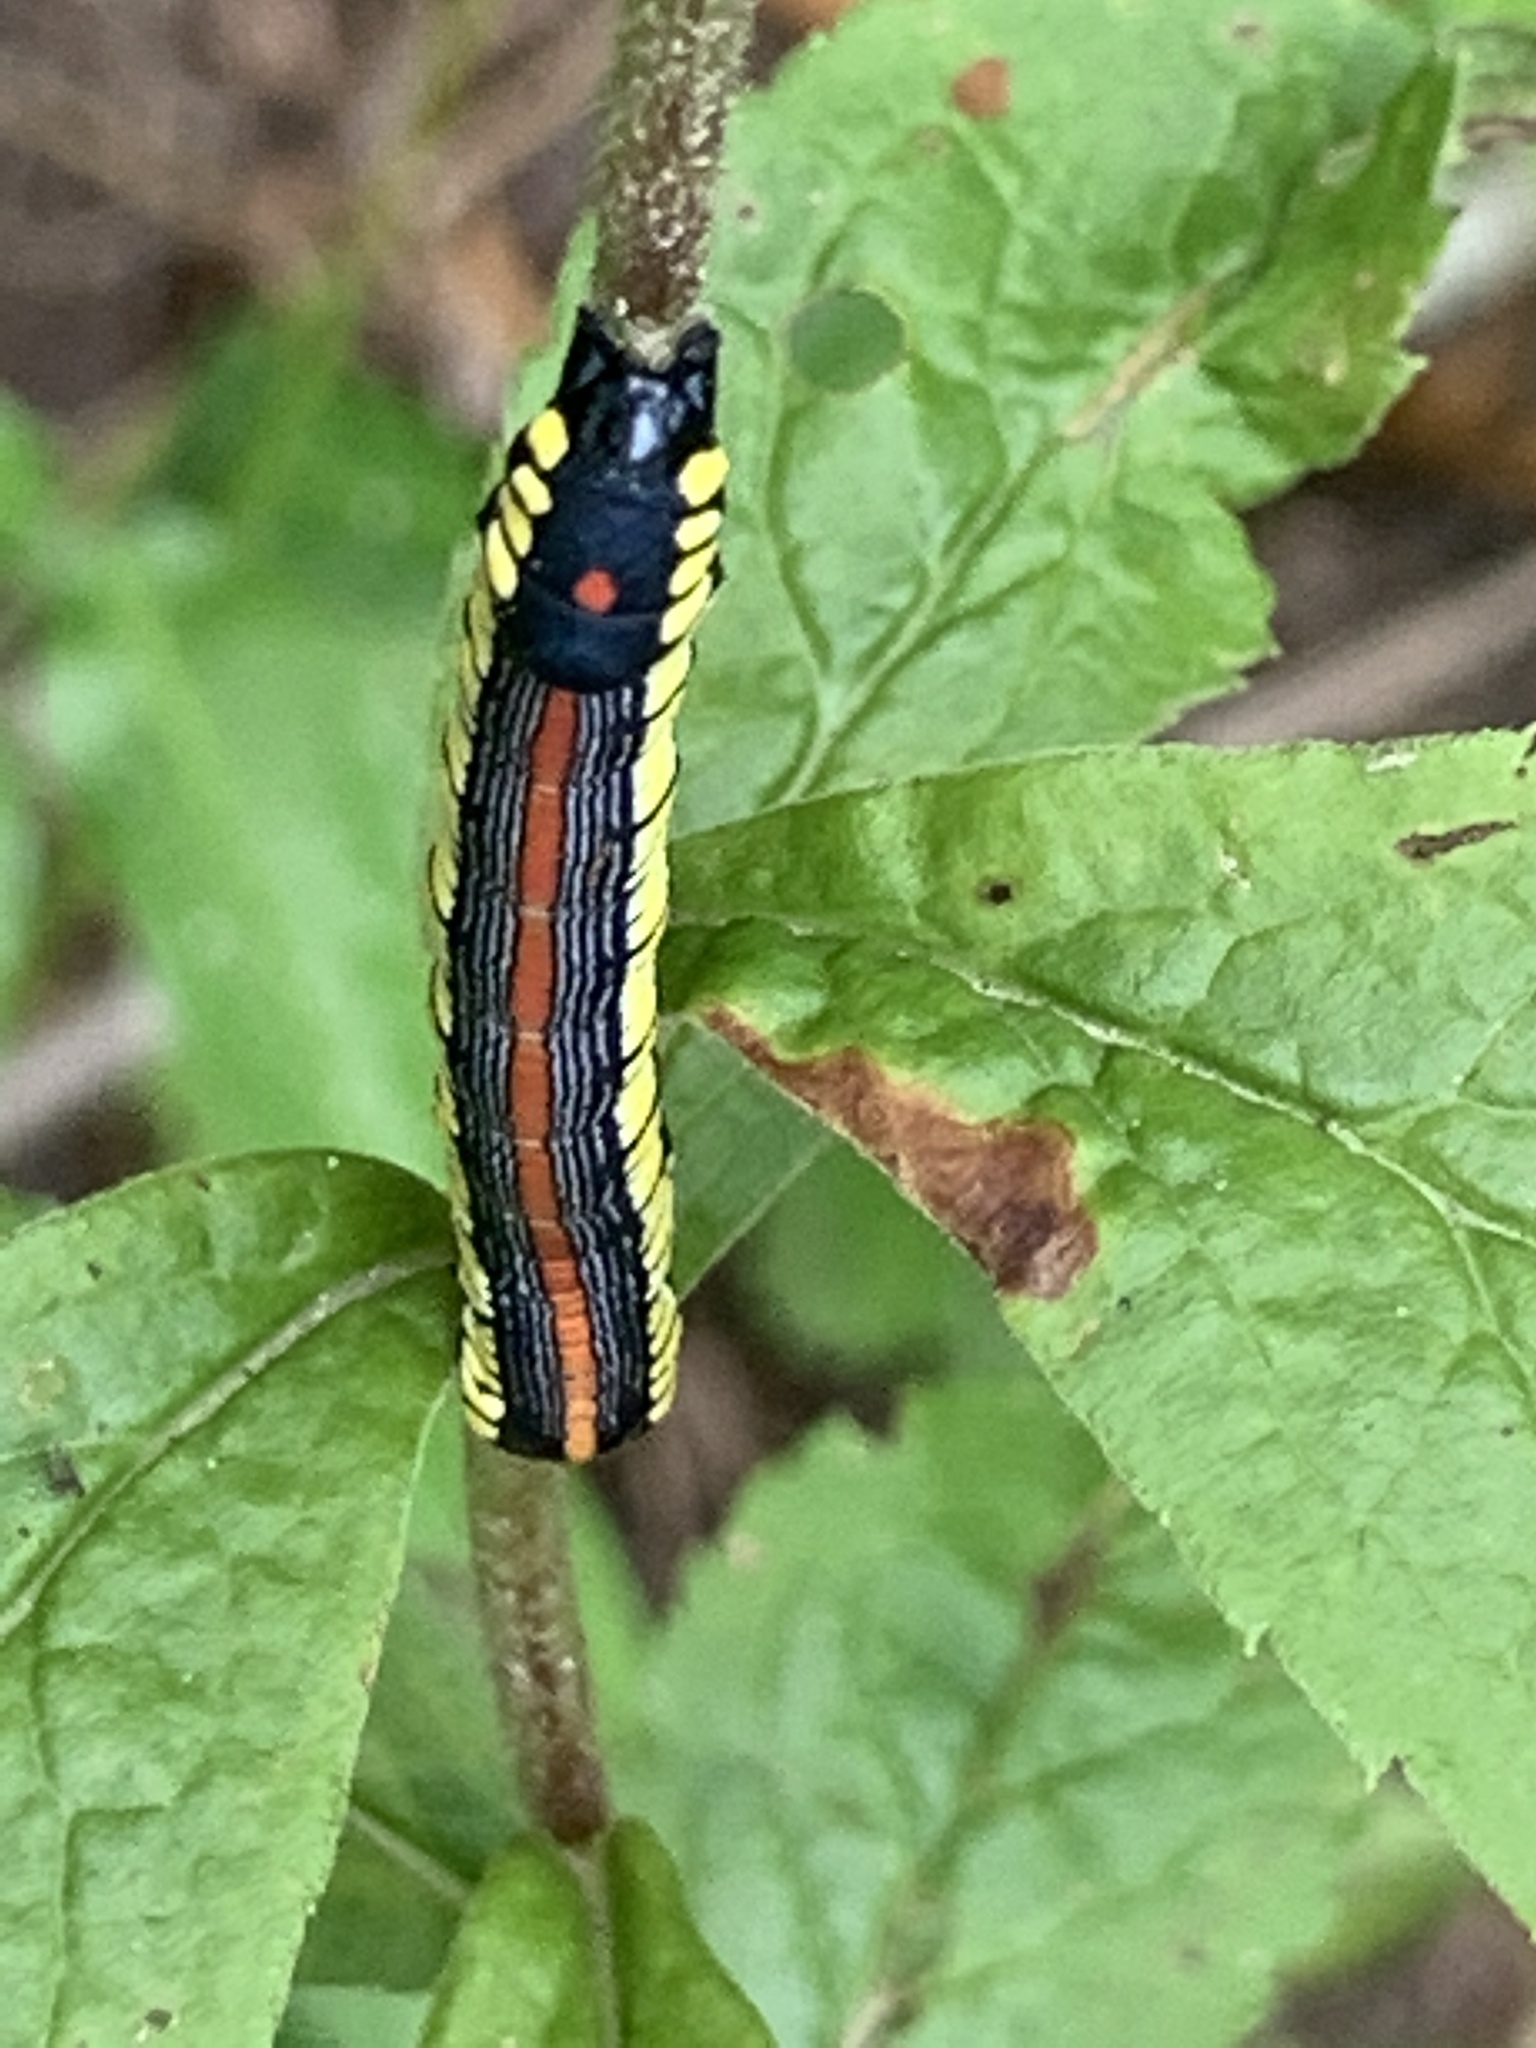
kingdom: Animalia
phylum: Arthropoda
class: Insecta
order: Lepidoptera
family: Noctuidae
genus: Cucullia
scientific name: Cucullia convexipennis
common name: Brown-hooded owlet
